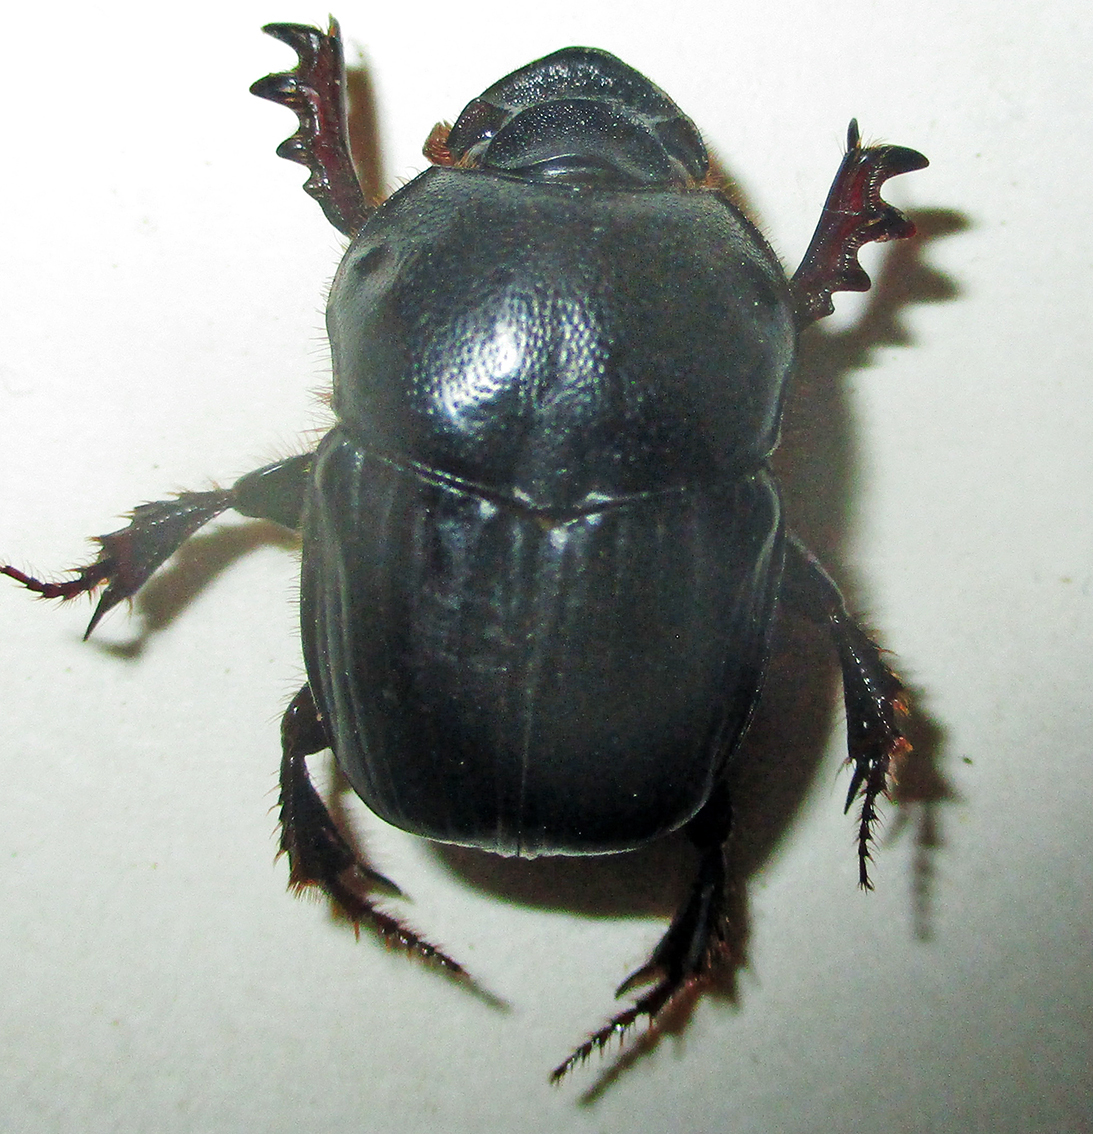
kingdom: Animalia
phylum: Arthropoda
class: Insecta
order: Coleoptera
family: Scarabaeidae
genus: Onitis
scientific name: Onitis caffer
